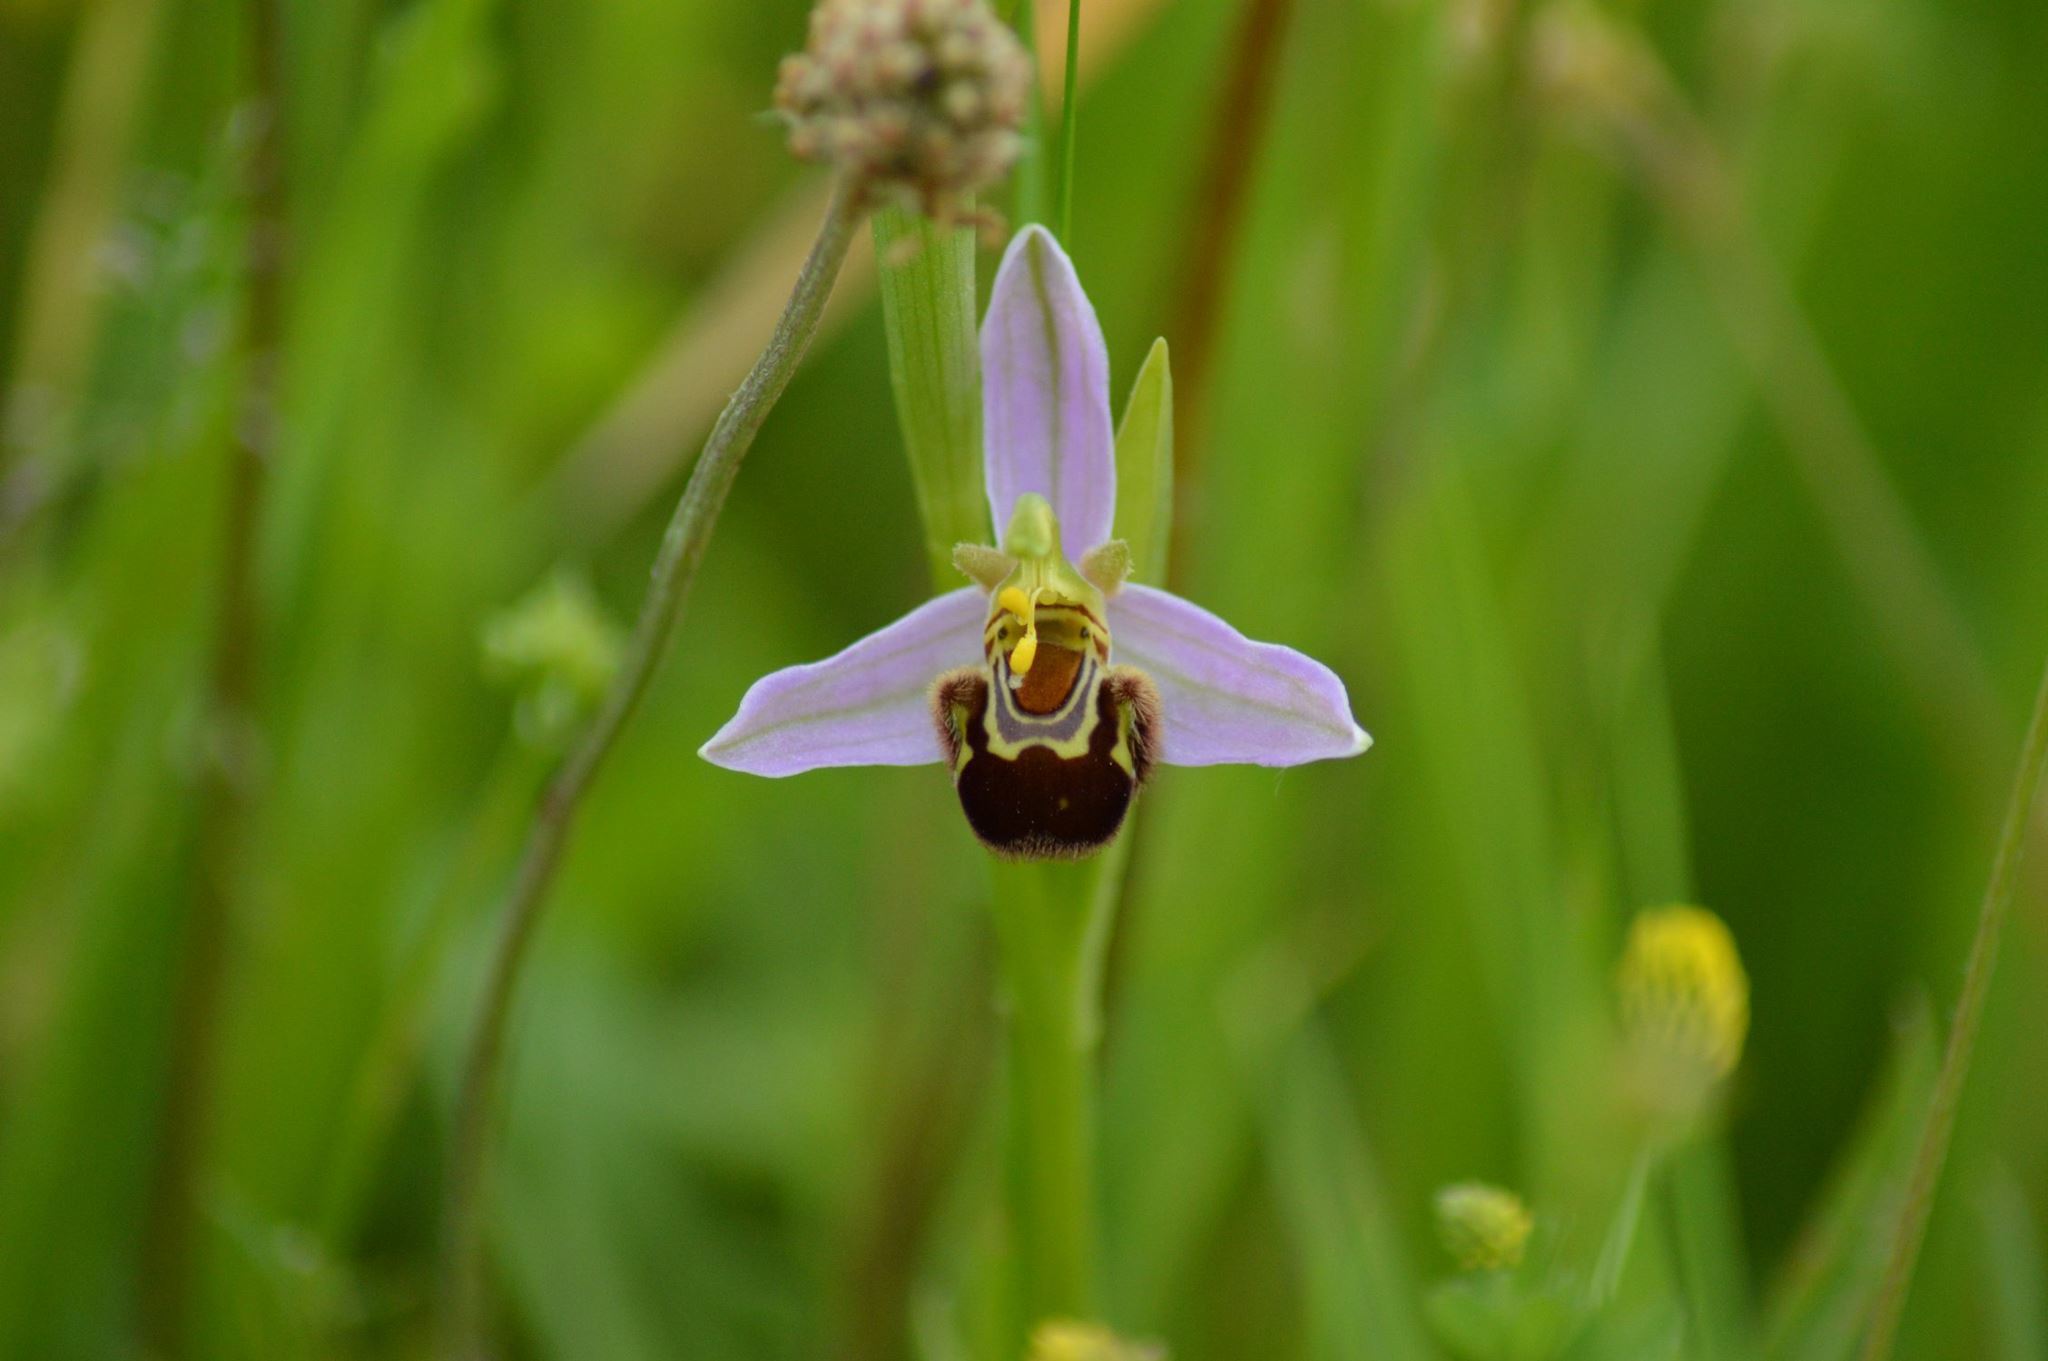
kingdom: Plantae
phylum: Tracheophyta
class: Liliopsida
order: Asparagales
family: Orchidaceae
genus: Ophrys
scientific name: Ophrys apifera
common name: Bee orchid
